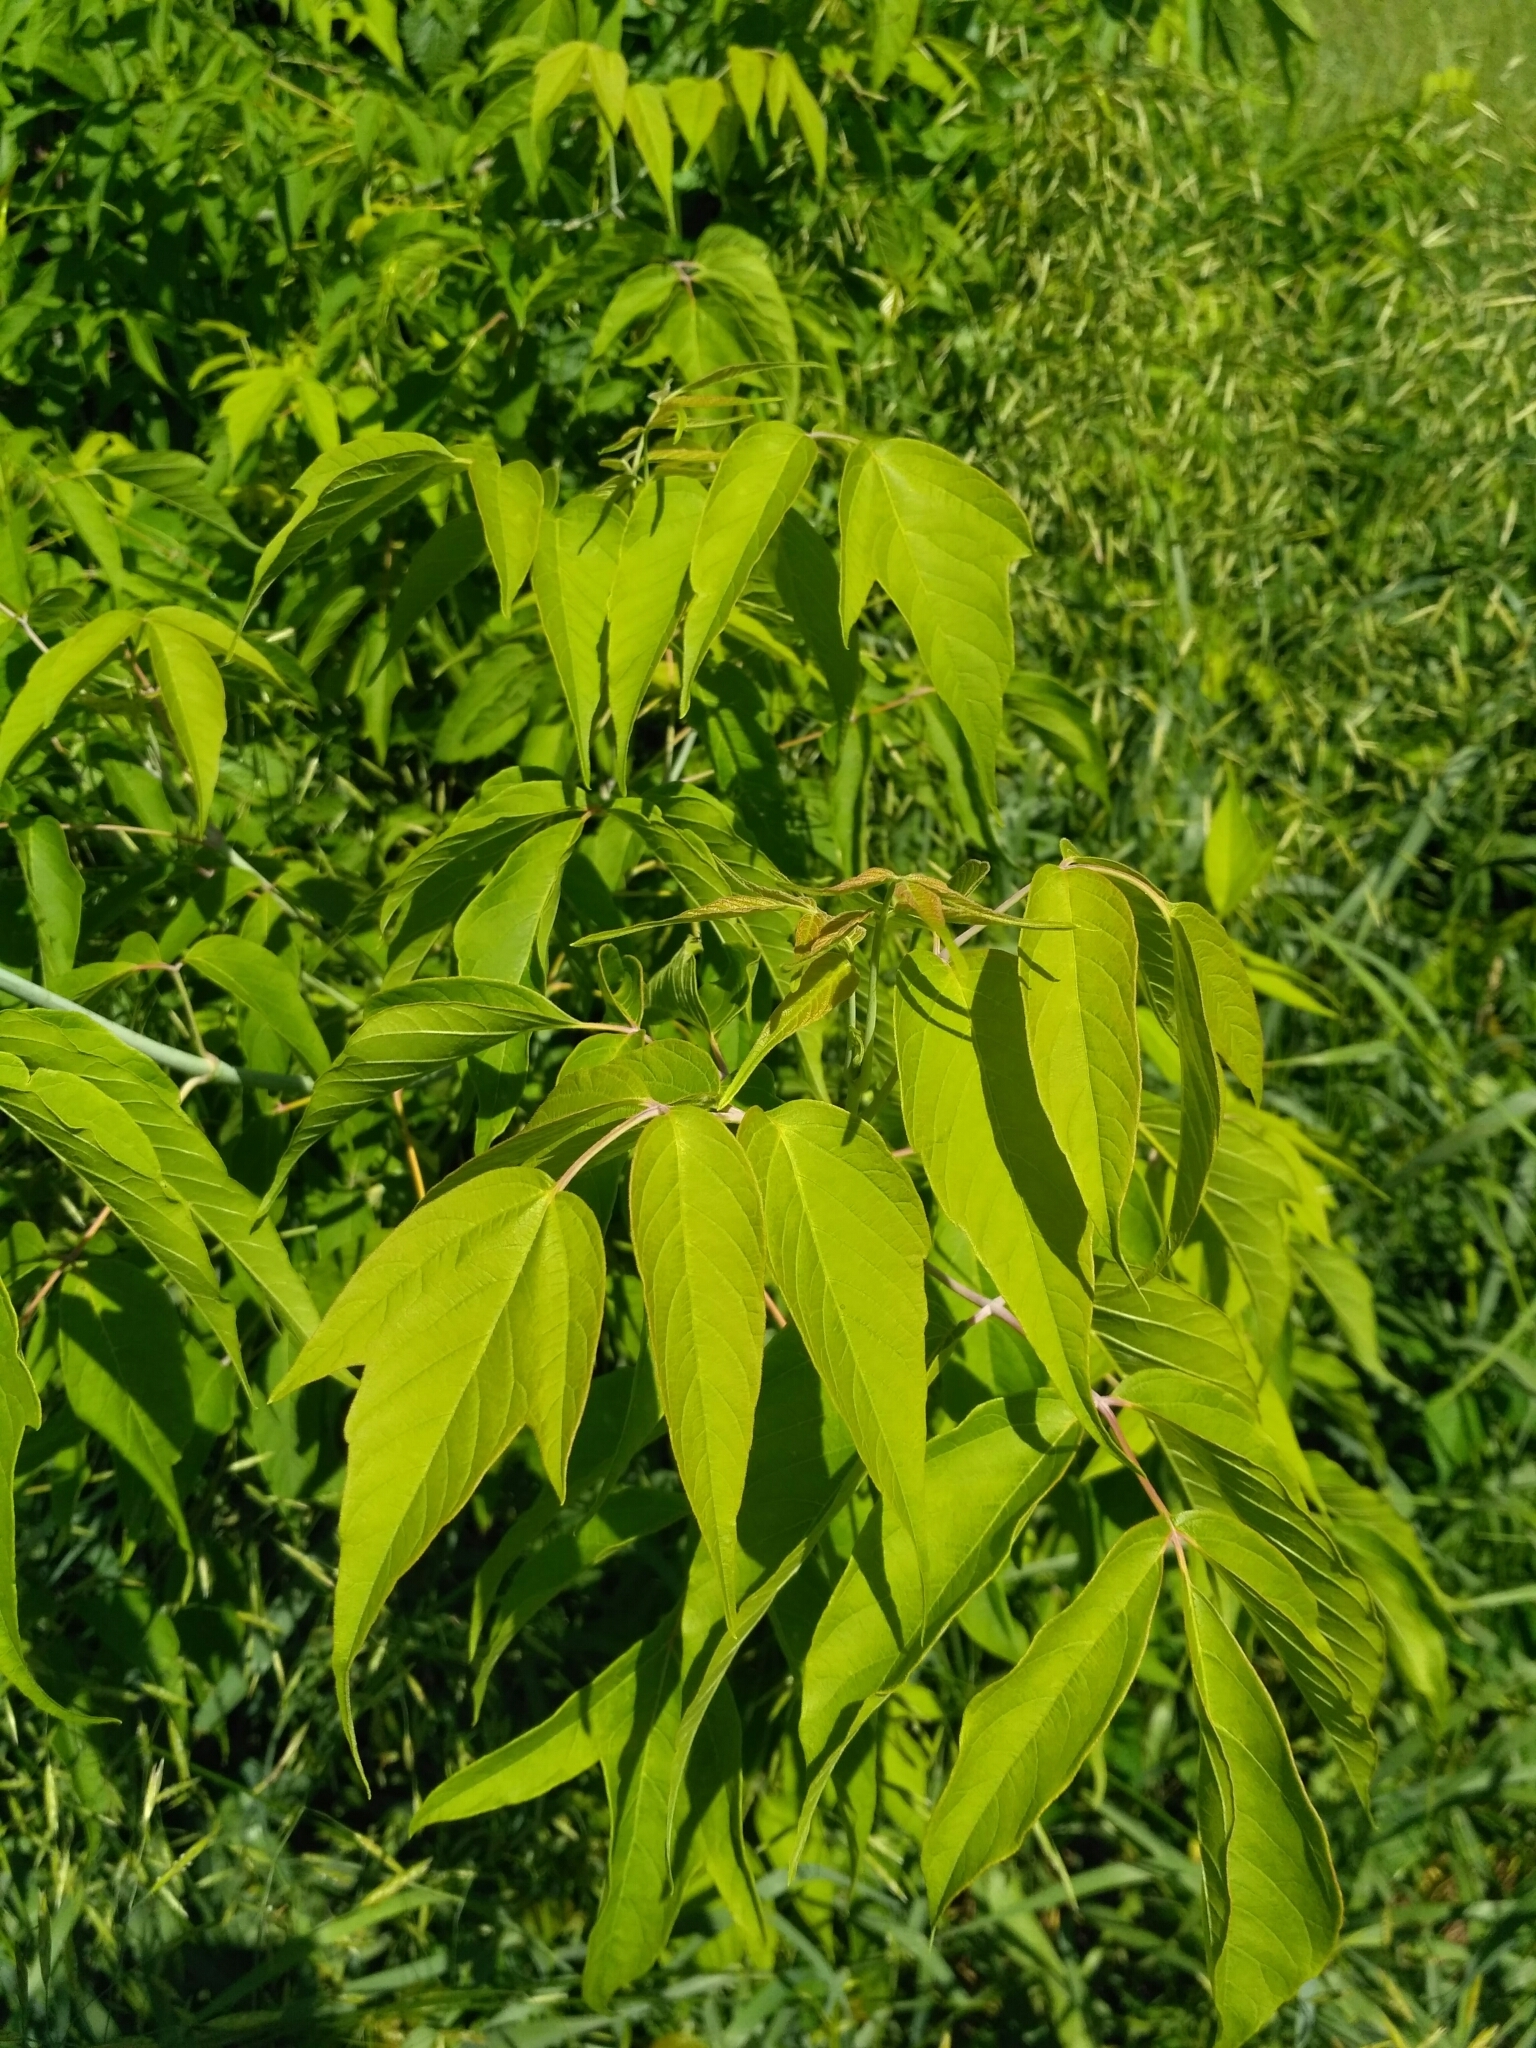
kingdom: Plantae
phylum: Tracheophyta
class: Magnoliopsida
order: Sapindales
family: Sapindaceae
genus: Acer
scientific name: Acer negundo
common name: Ashleaf maple
